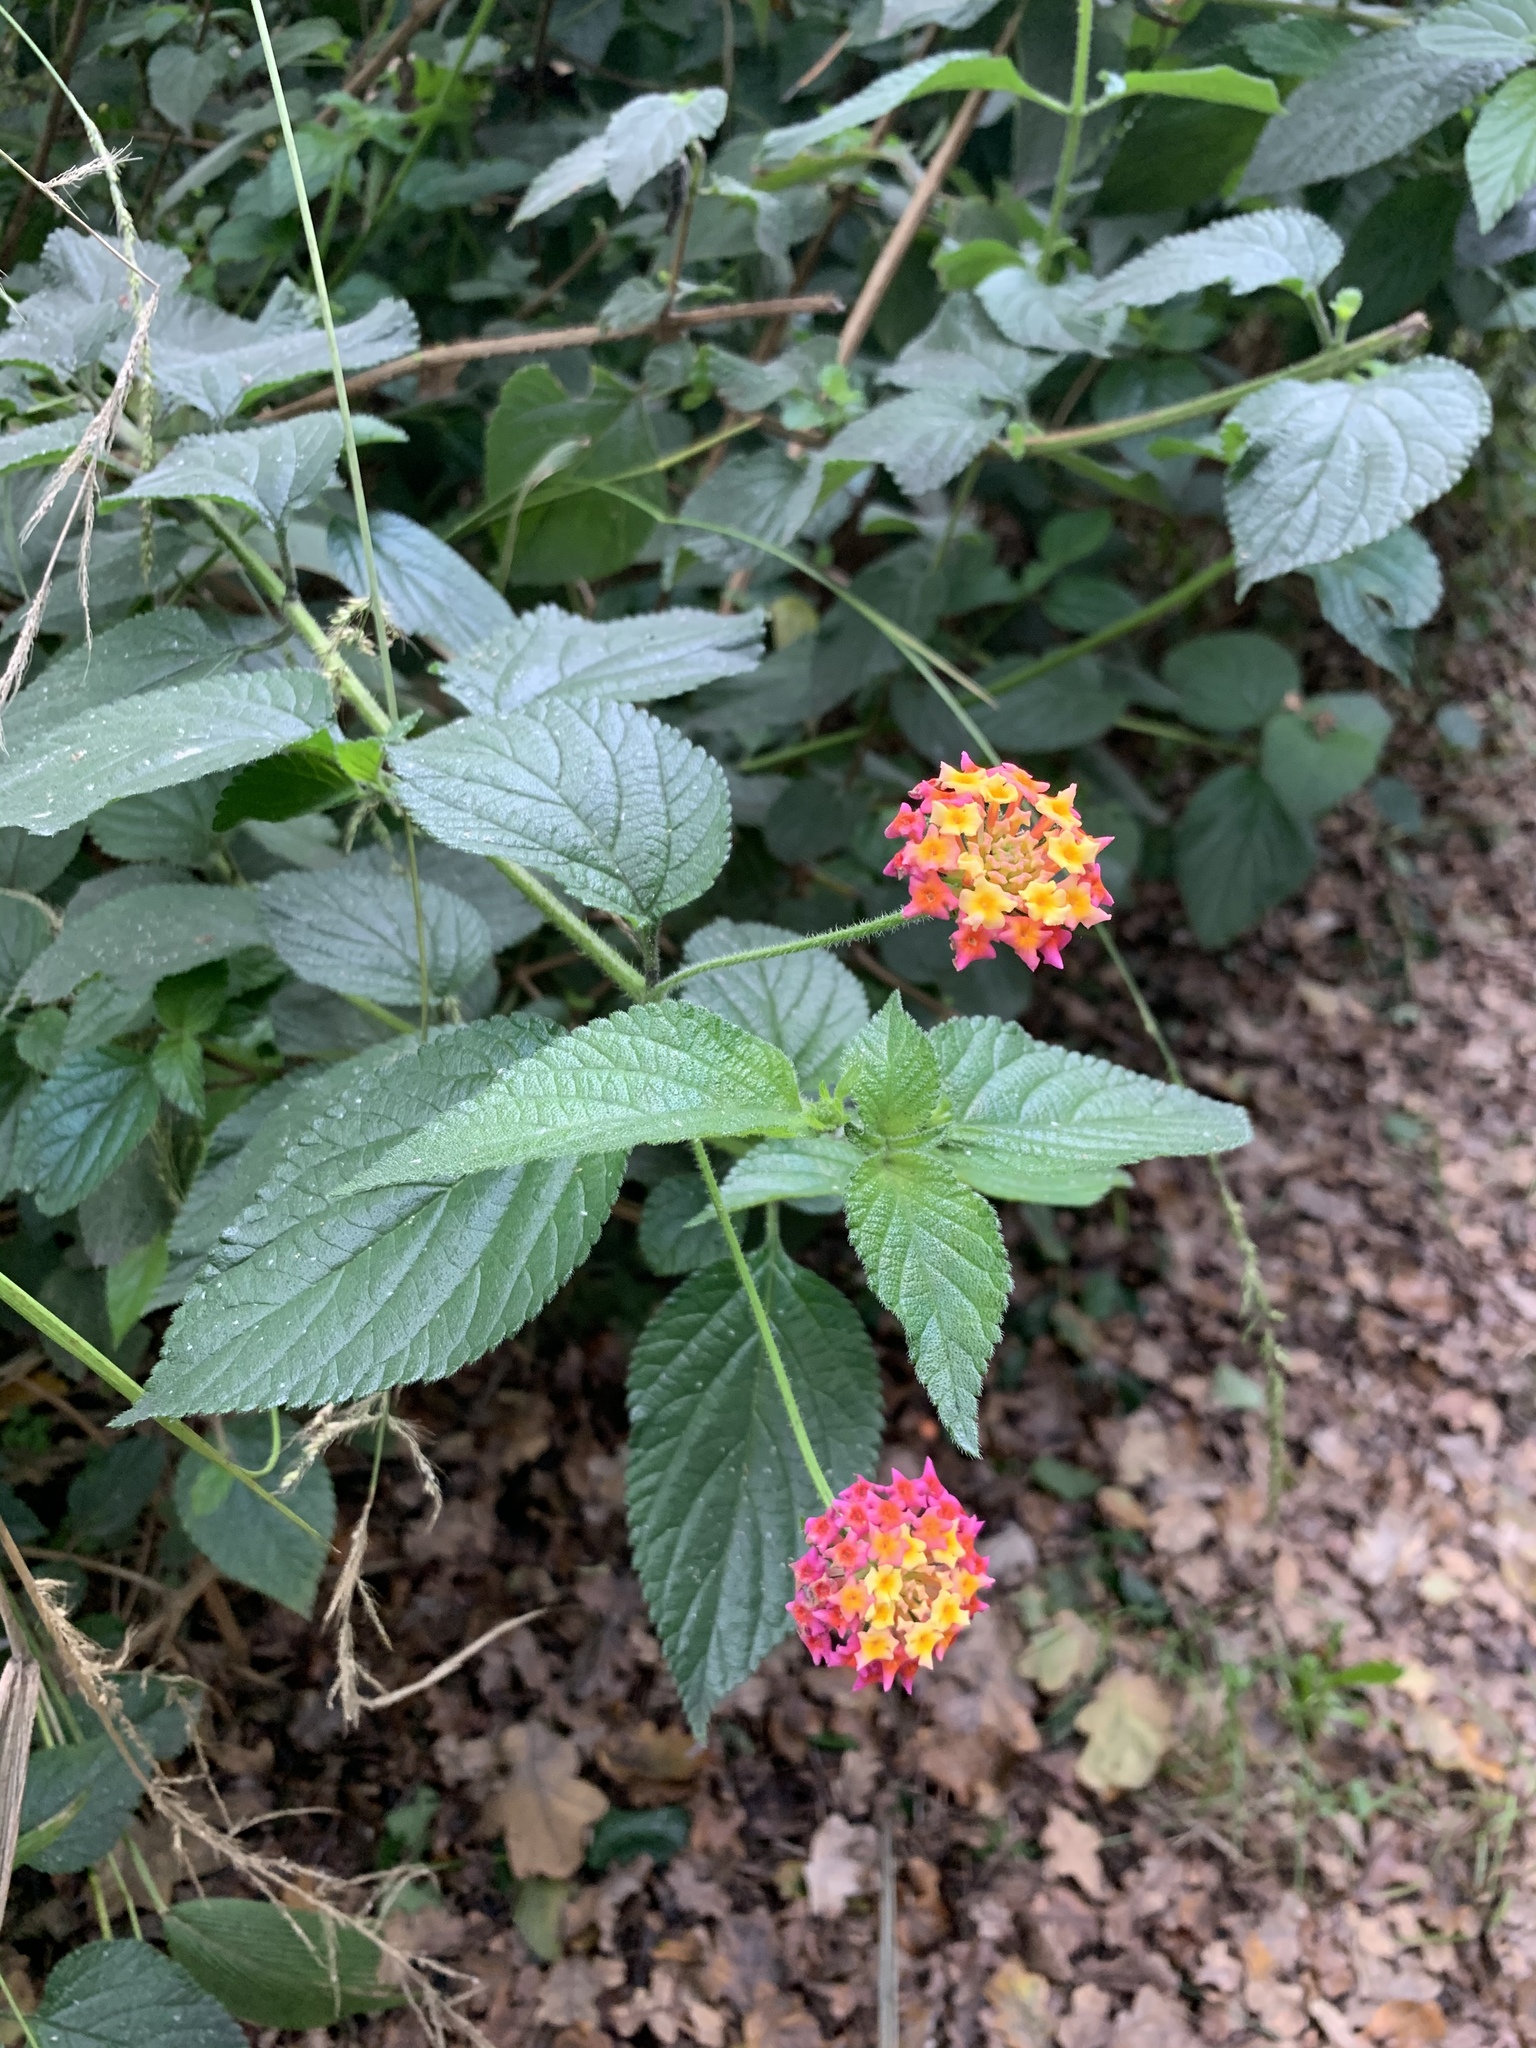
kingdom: Plantae
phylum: Tracheophyta
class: Magnoliopsida
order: Lamiales
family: Verbenaceae
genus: Lantana
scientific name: Lantana camara
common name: Lantana
